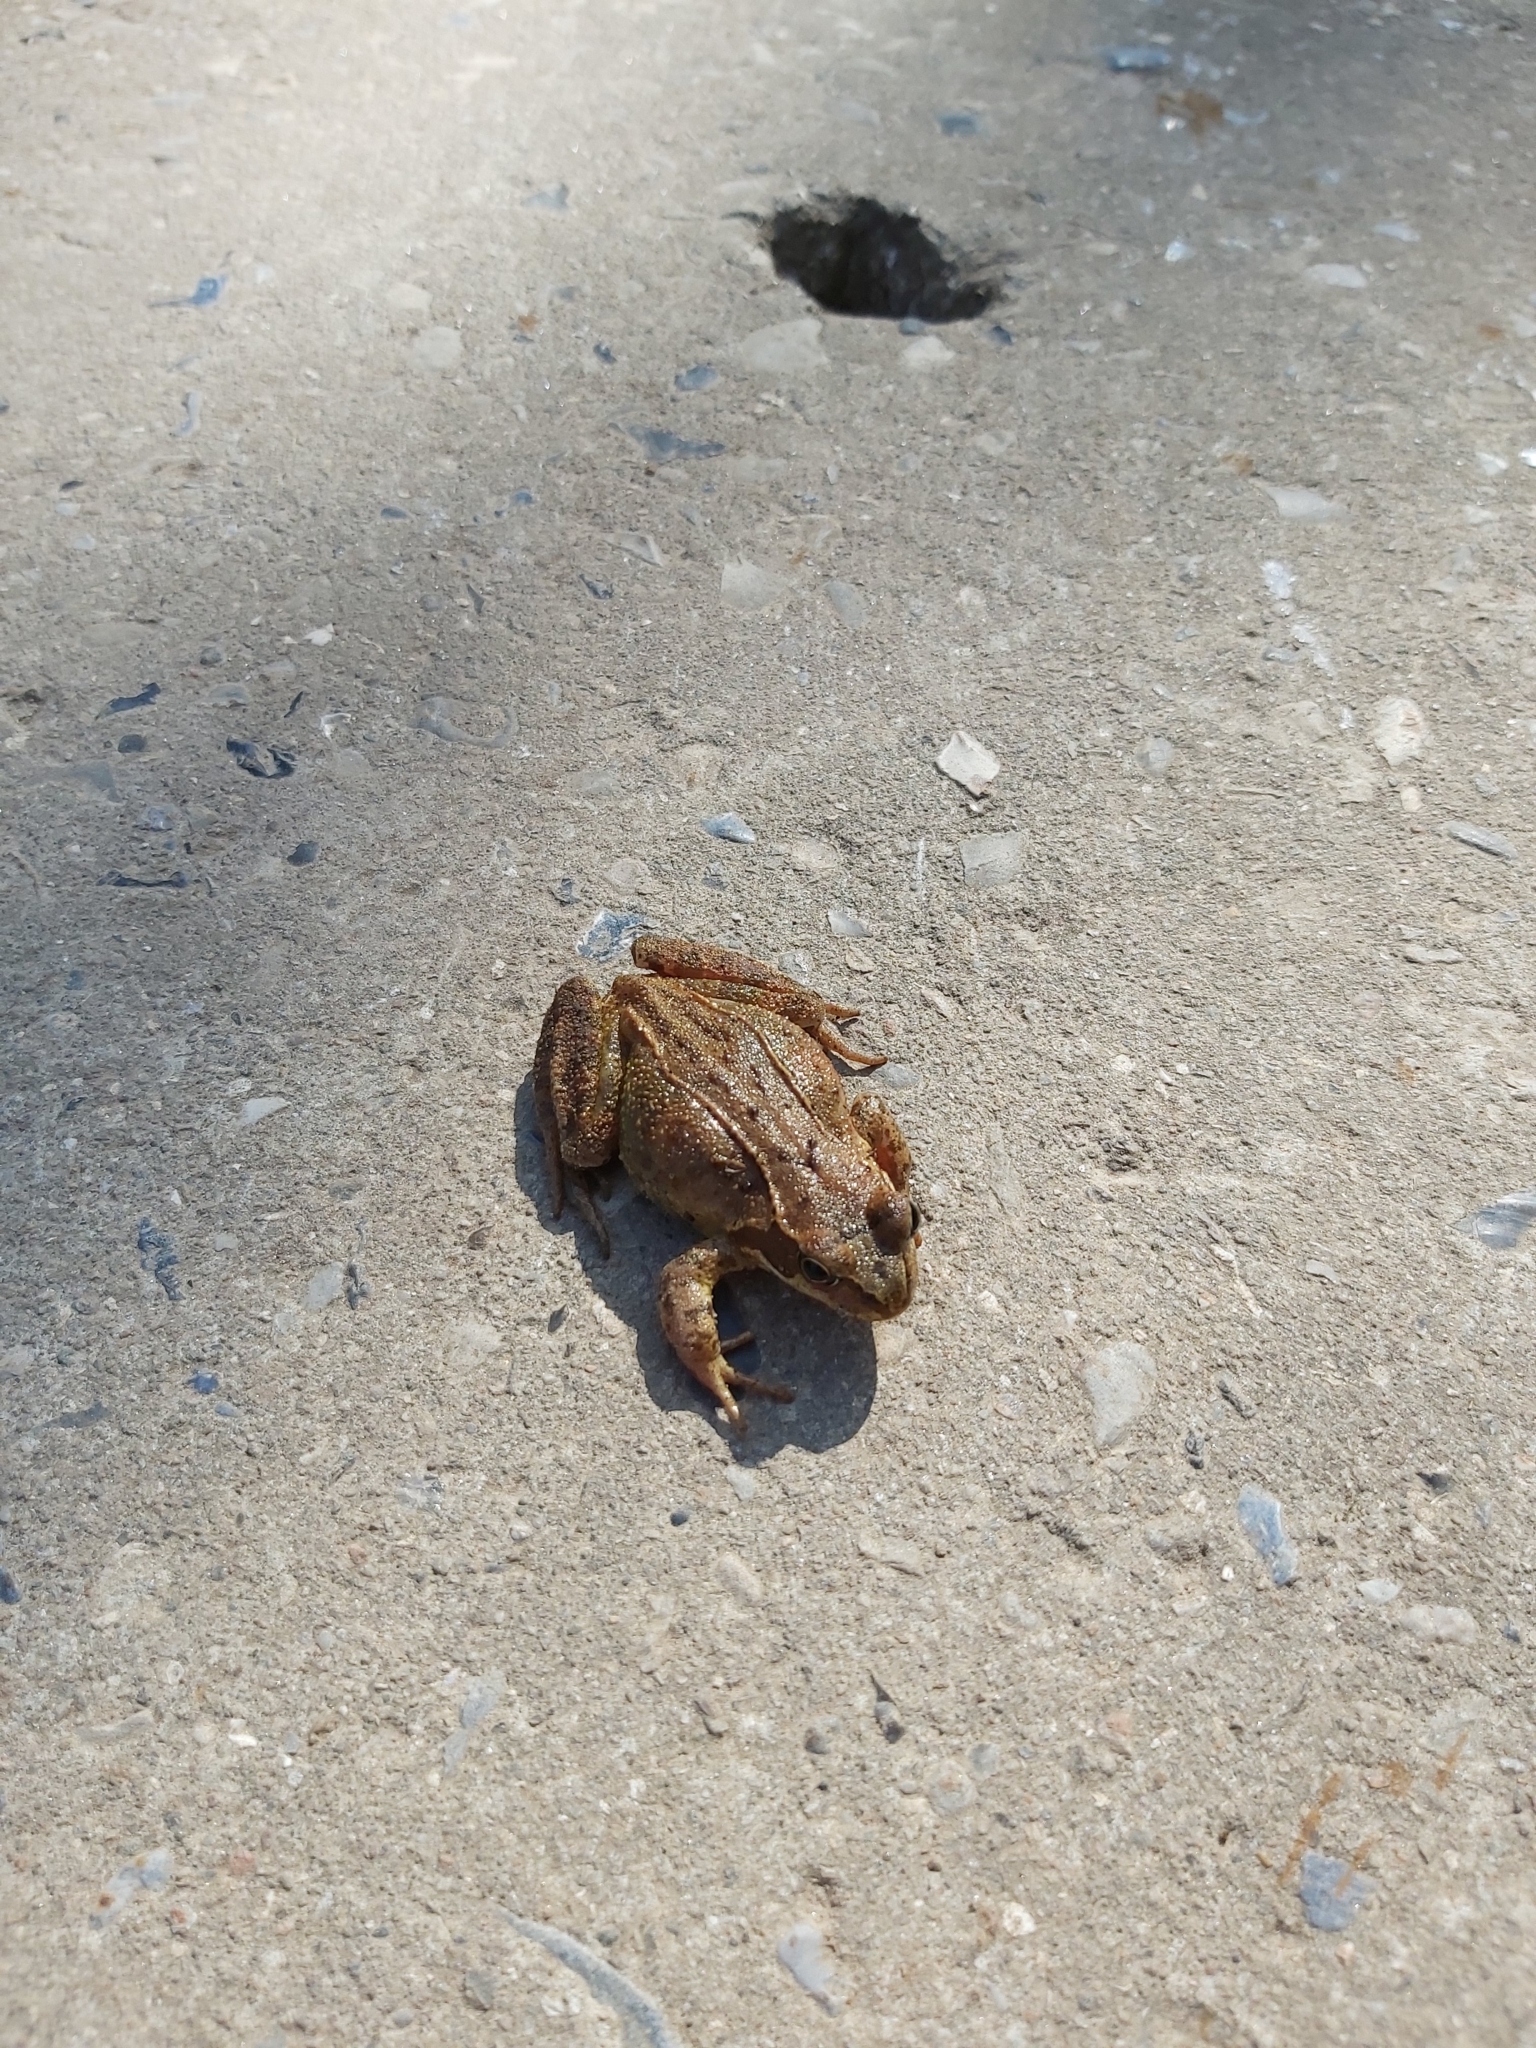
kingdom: Animalia
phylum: Chordata
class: Amphibia
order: Anura
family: Ranidae
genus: Rana
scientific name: Rana temporaria
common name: Common frog
